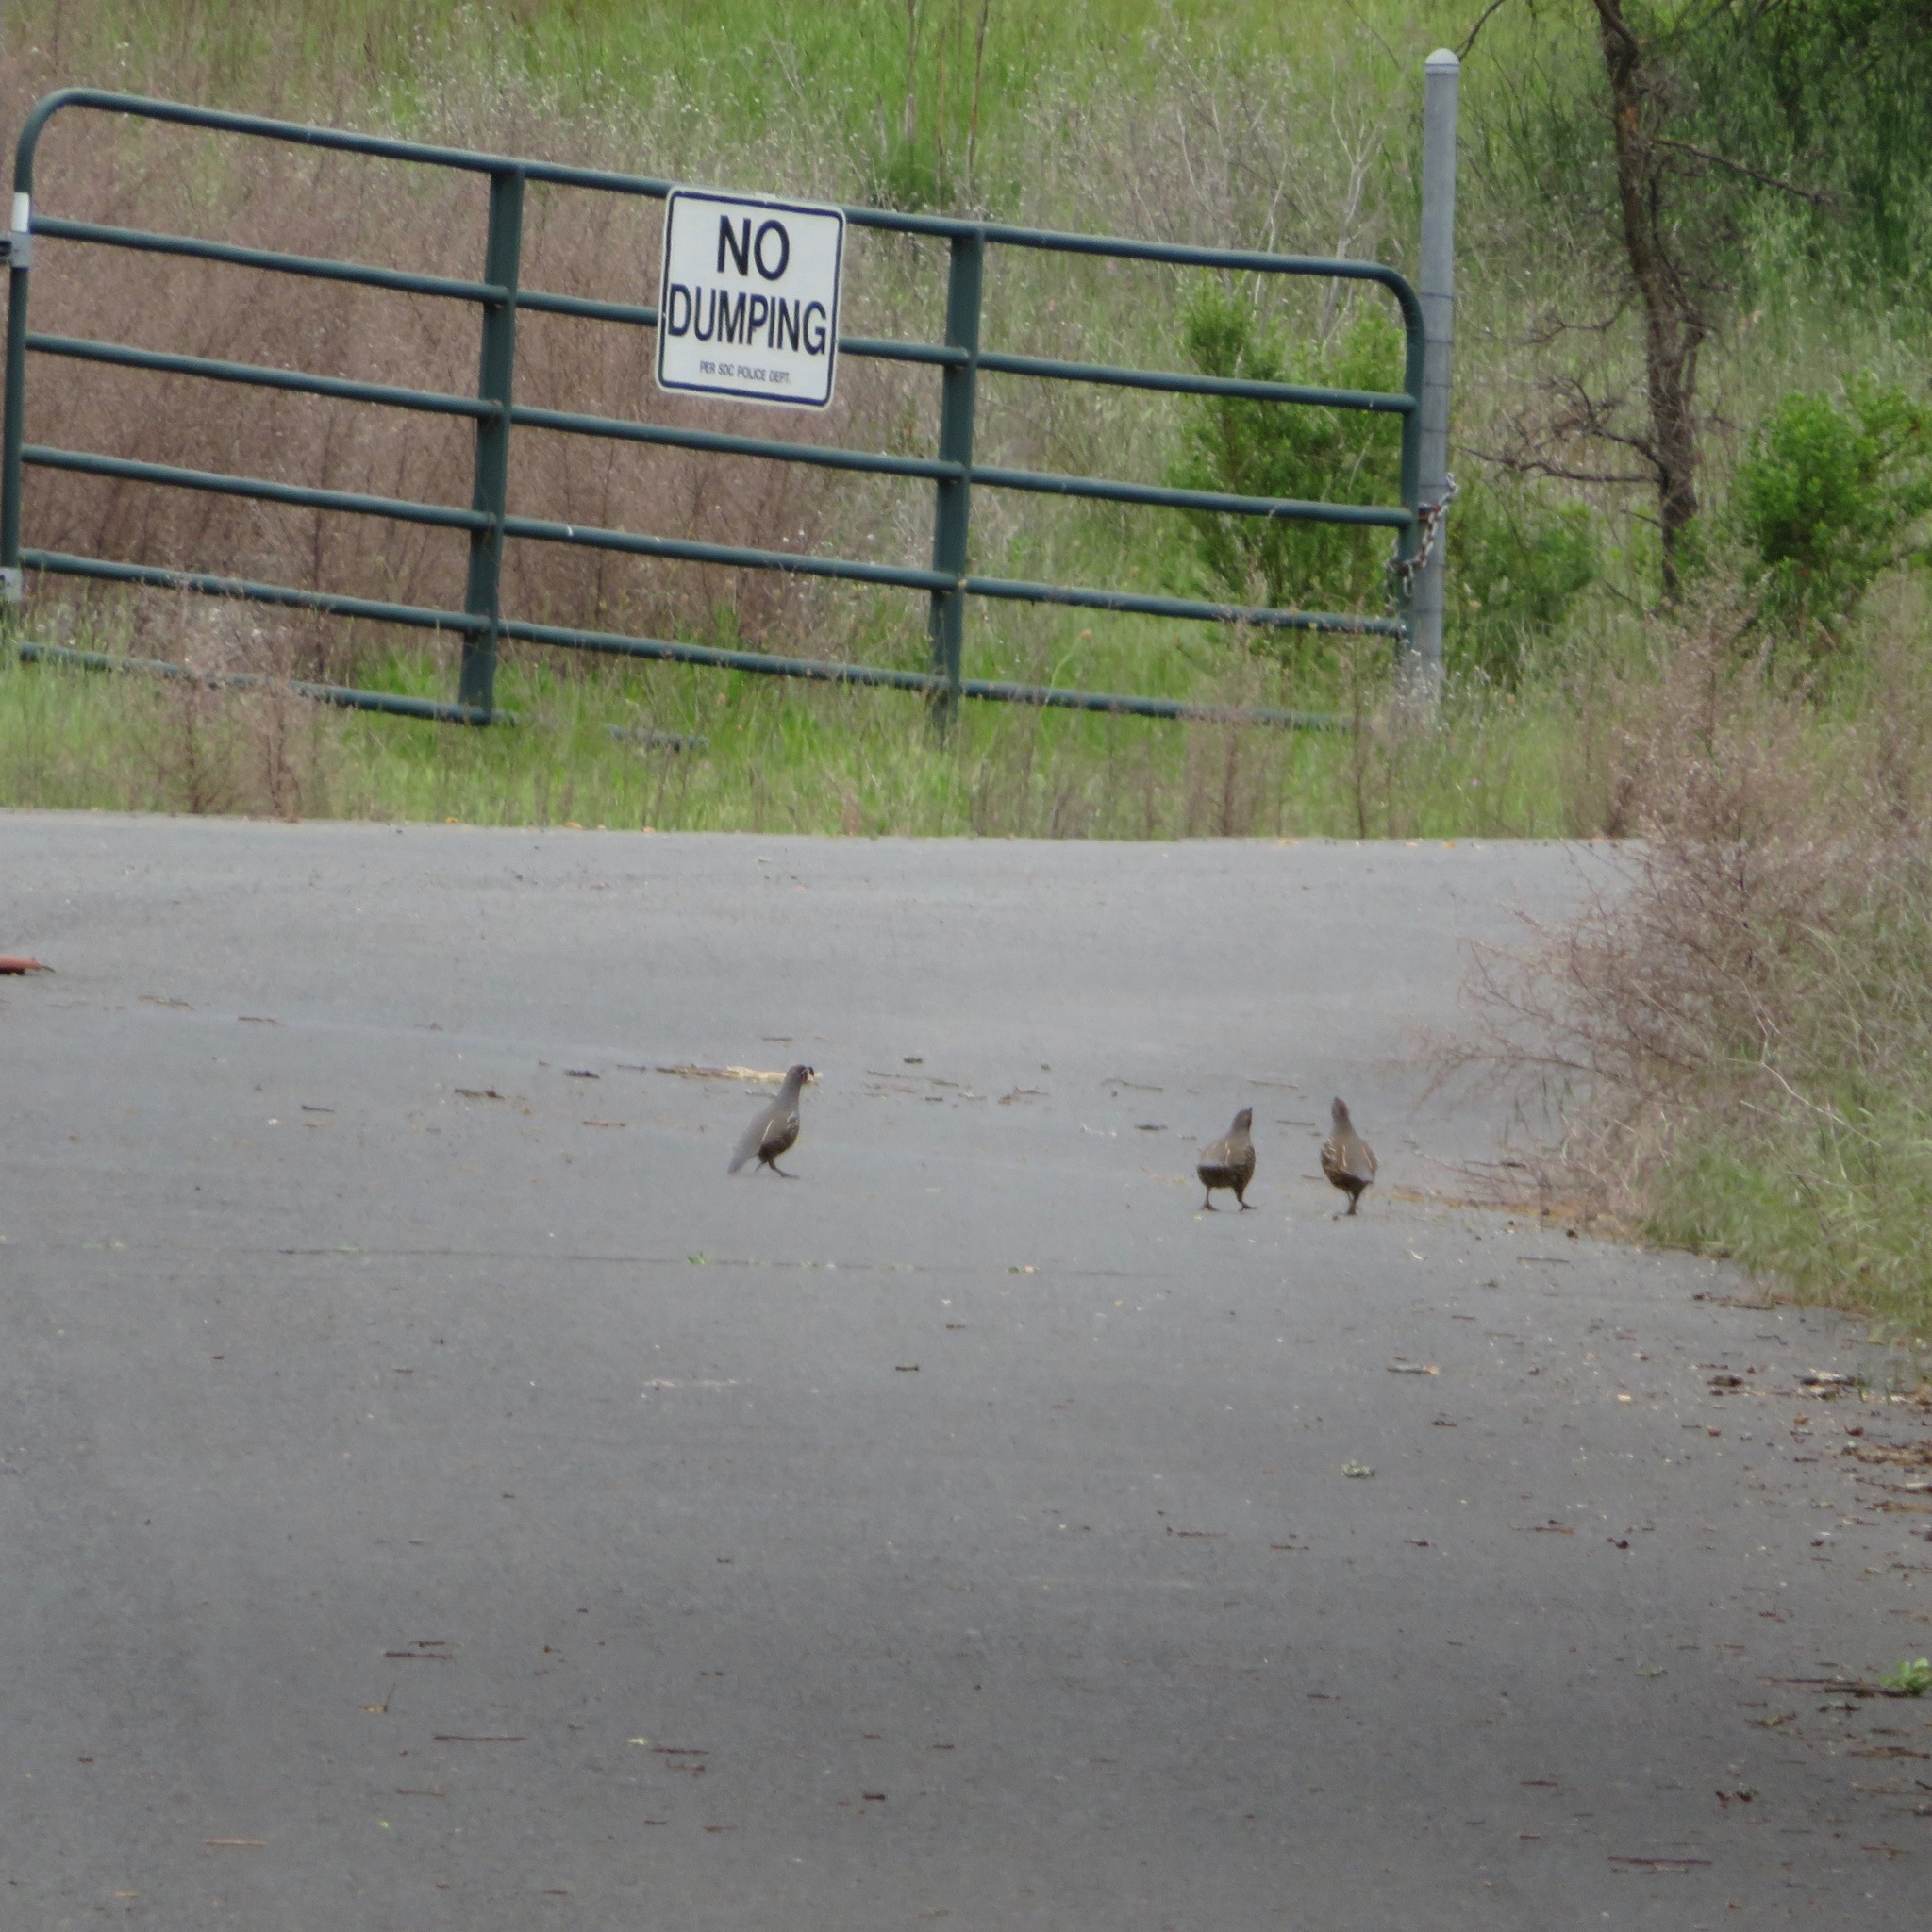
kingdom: Animalia
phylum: Chordata
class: Aves
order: Galliformes
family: Odontophoridae
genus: Callipepla
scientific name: Callipepla californica
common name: California quail
